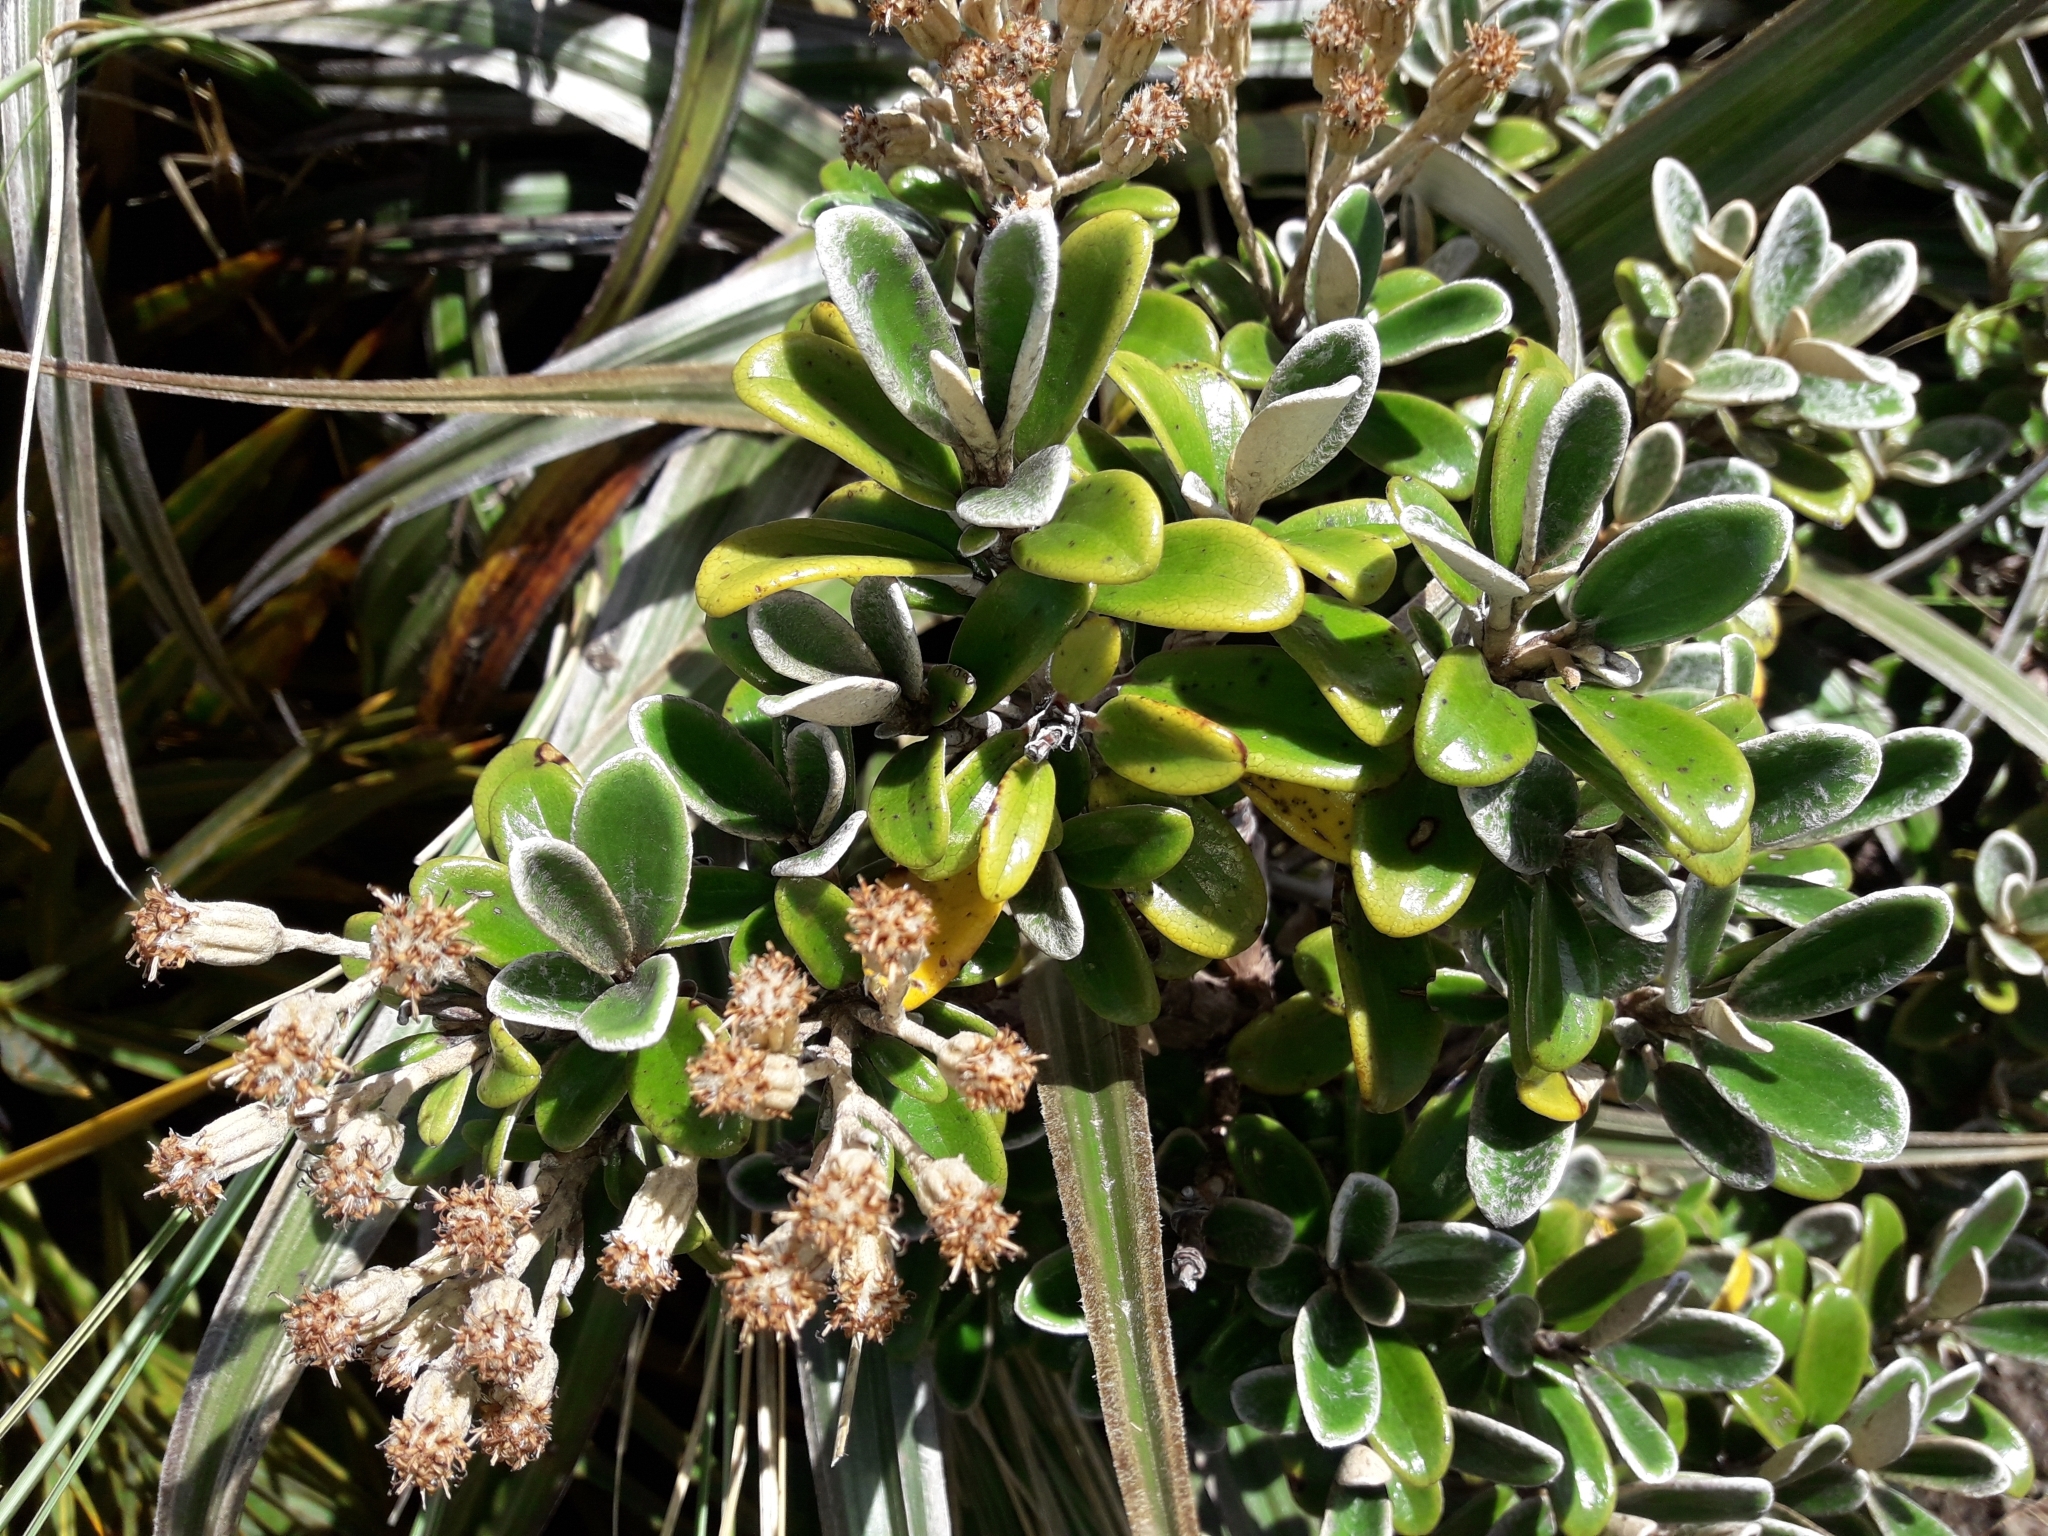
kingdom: Plantae
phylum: Tracheophyta
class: Magnoliopsida
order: Asterales
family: Asteraceae
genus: Brachyglottis
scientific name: Brachyglottis bidwillii
